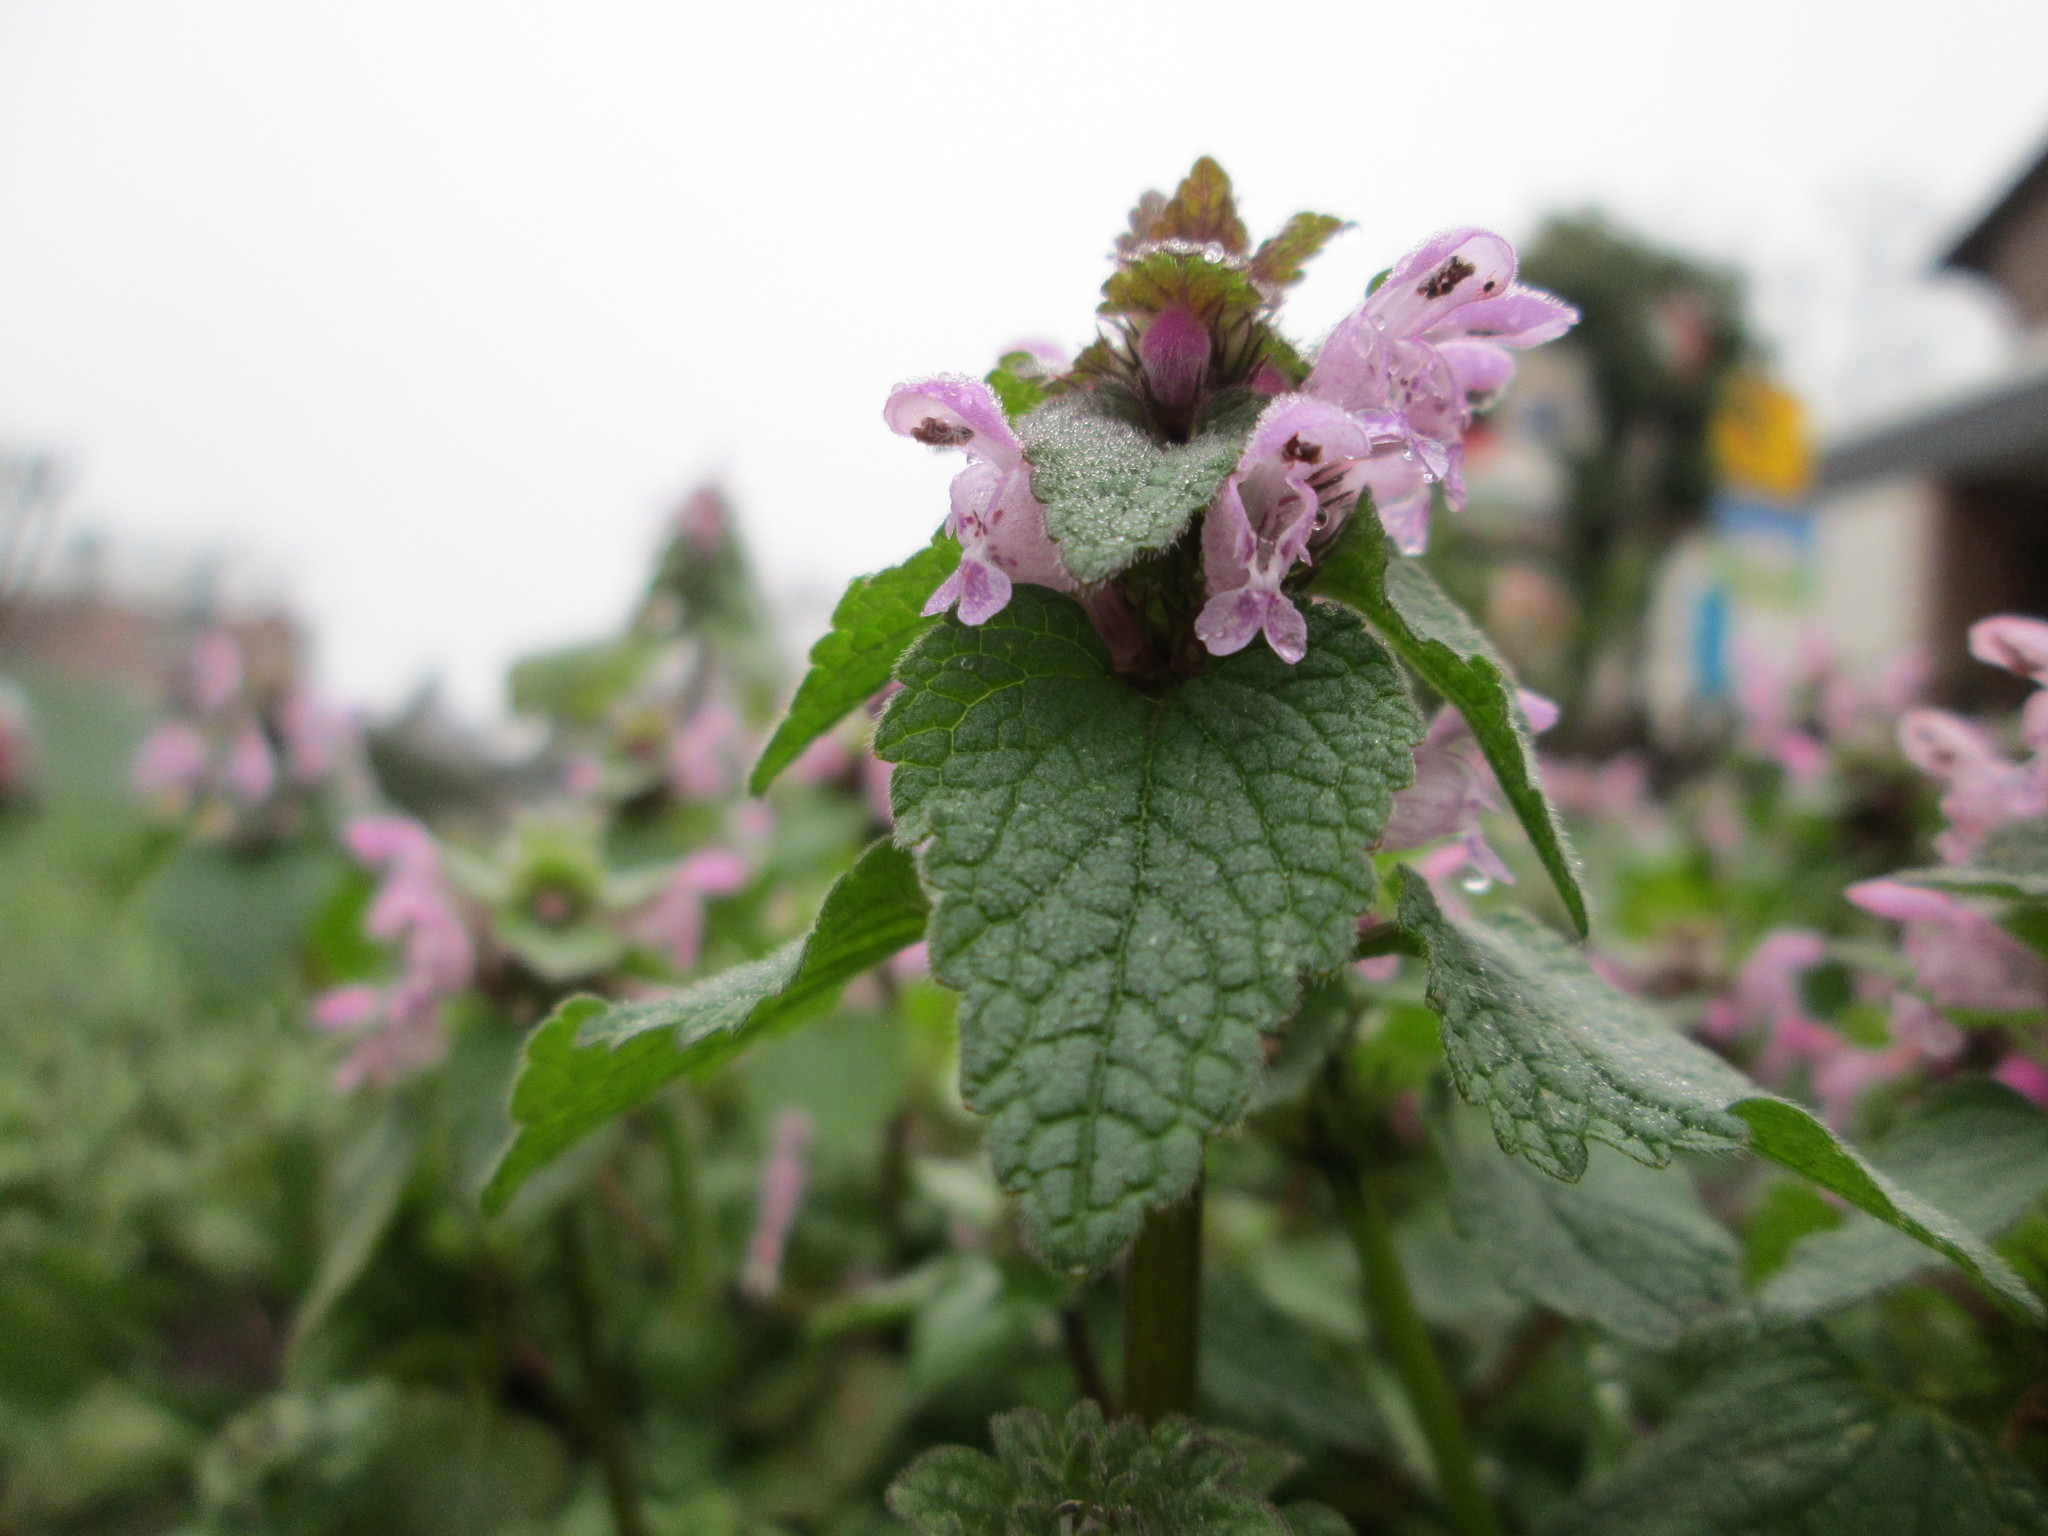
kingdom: Plantae
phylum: Tracheophyta
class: Magnoliopsida
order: Lamiales
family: Lamiaceae
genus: Lamium
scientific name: Lamium purpureum
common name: Red dead-nettle
